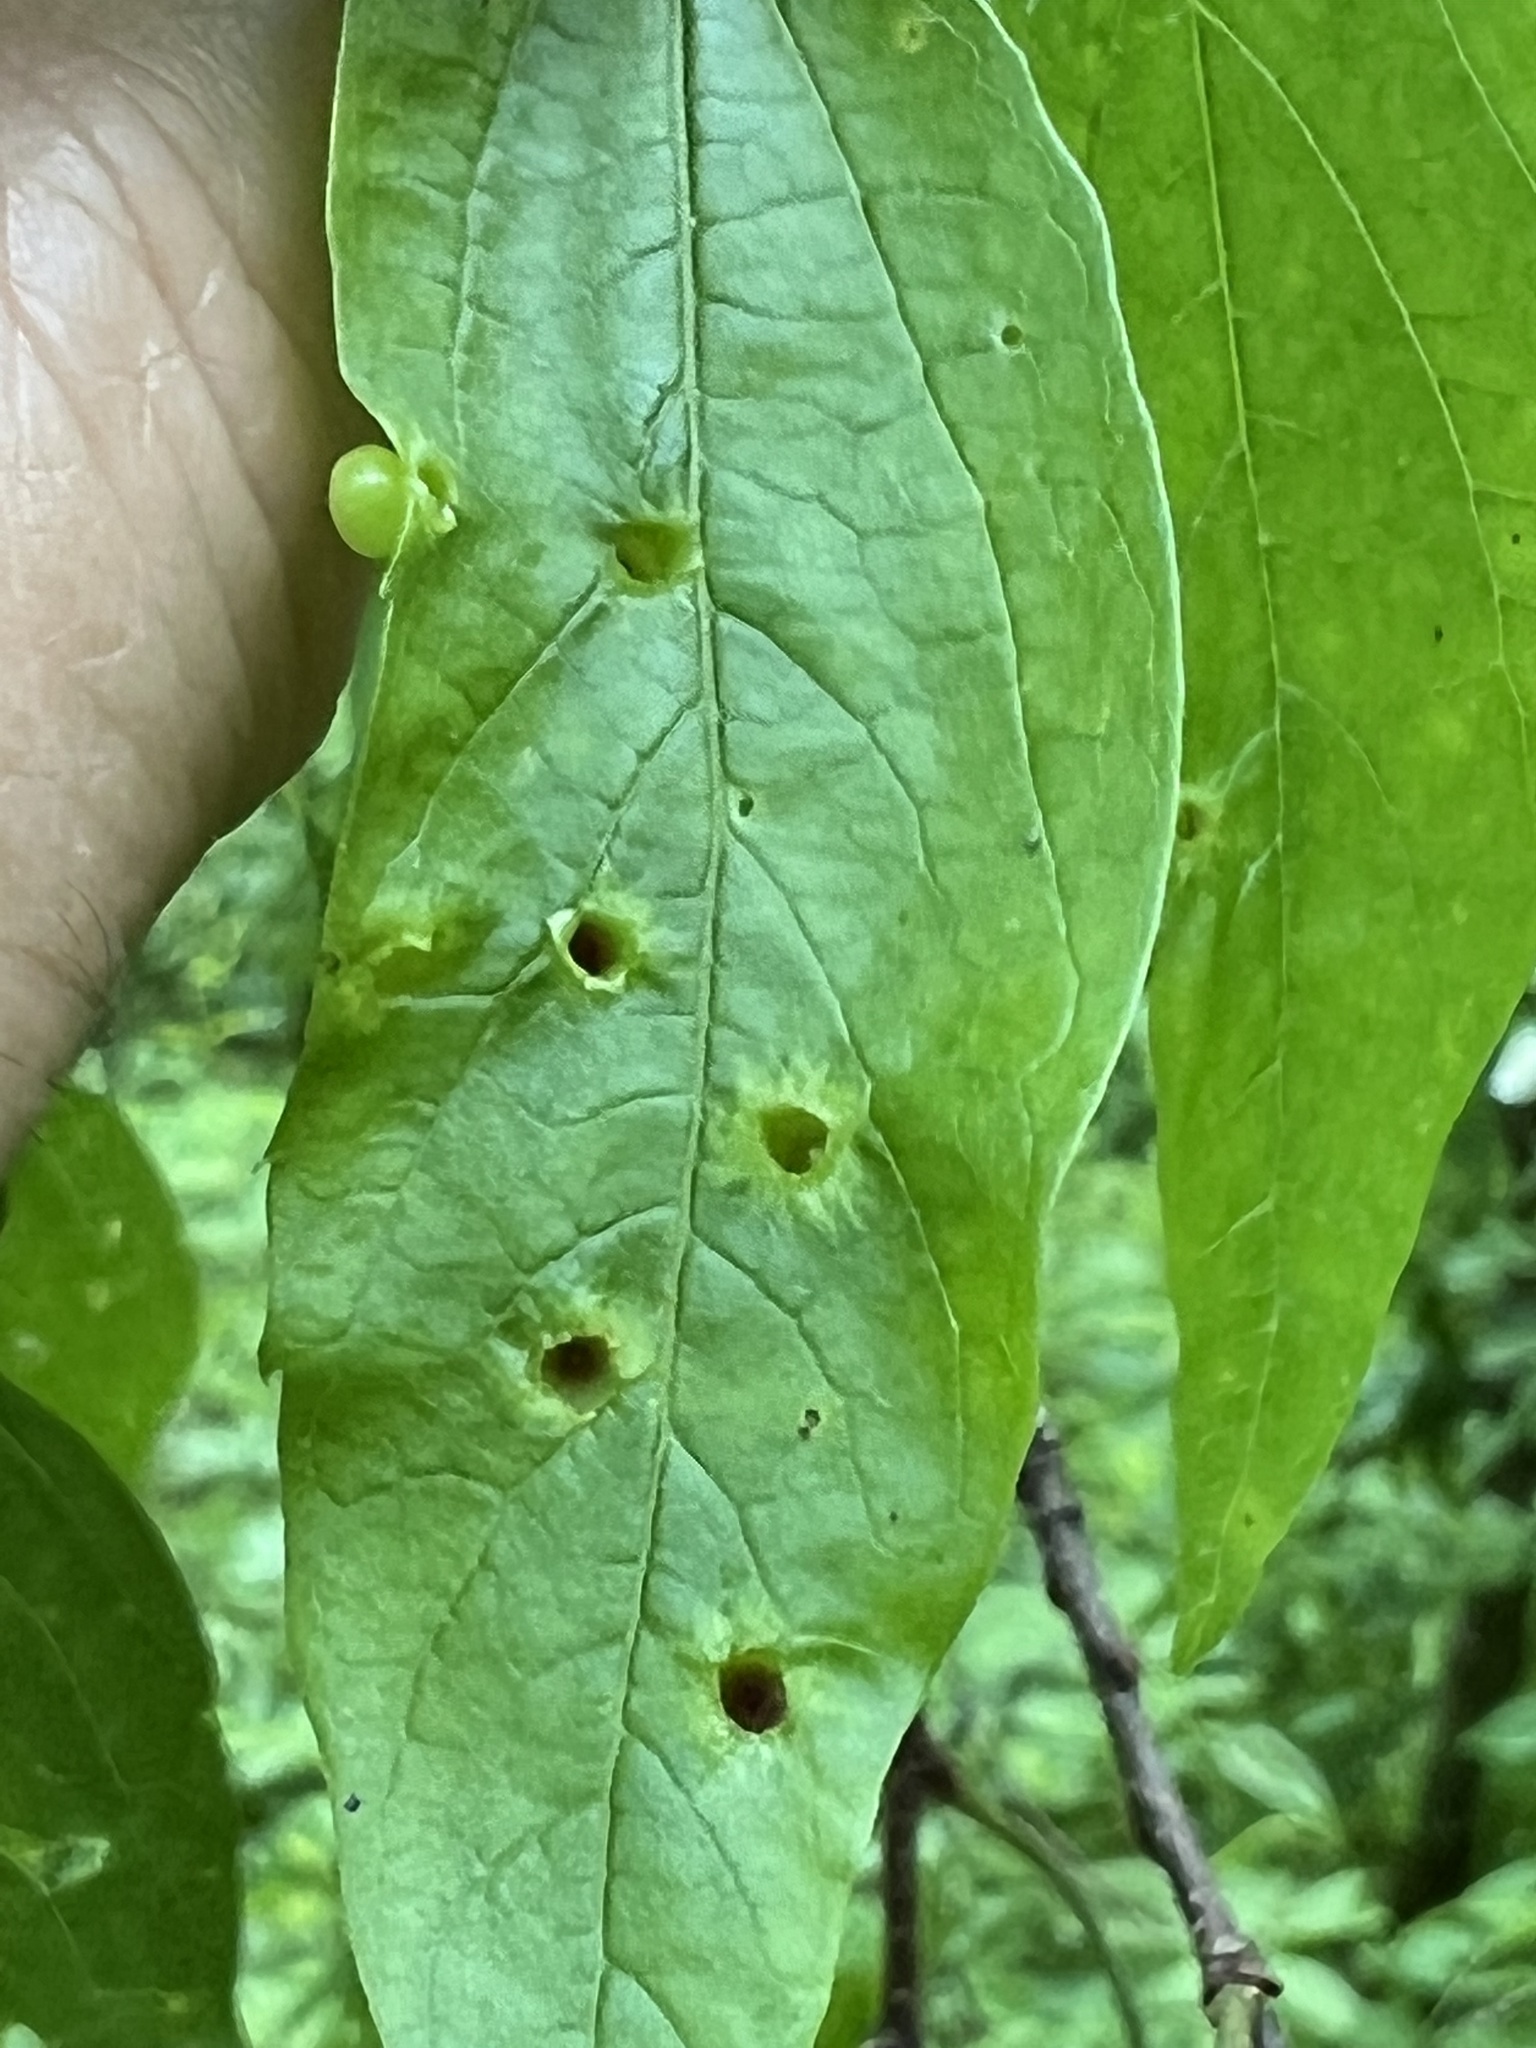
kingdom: Animalia
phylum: Arthropoda
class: Insecta
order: Hemiptera
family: Aphalaridae
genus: Pachypsylla
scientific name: Pachypsylla celtidismamma
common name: Hackberry nipplegall psyllid
